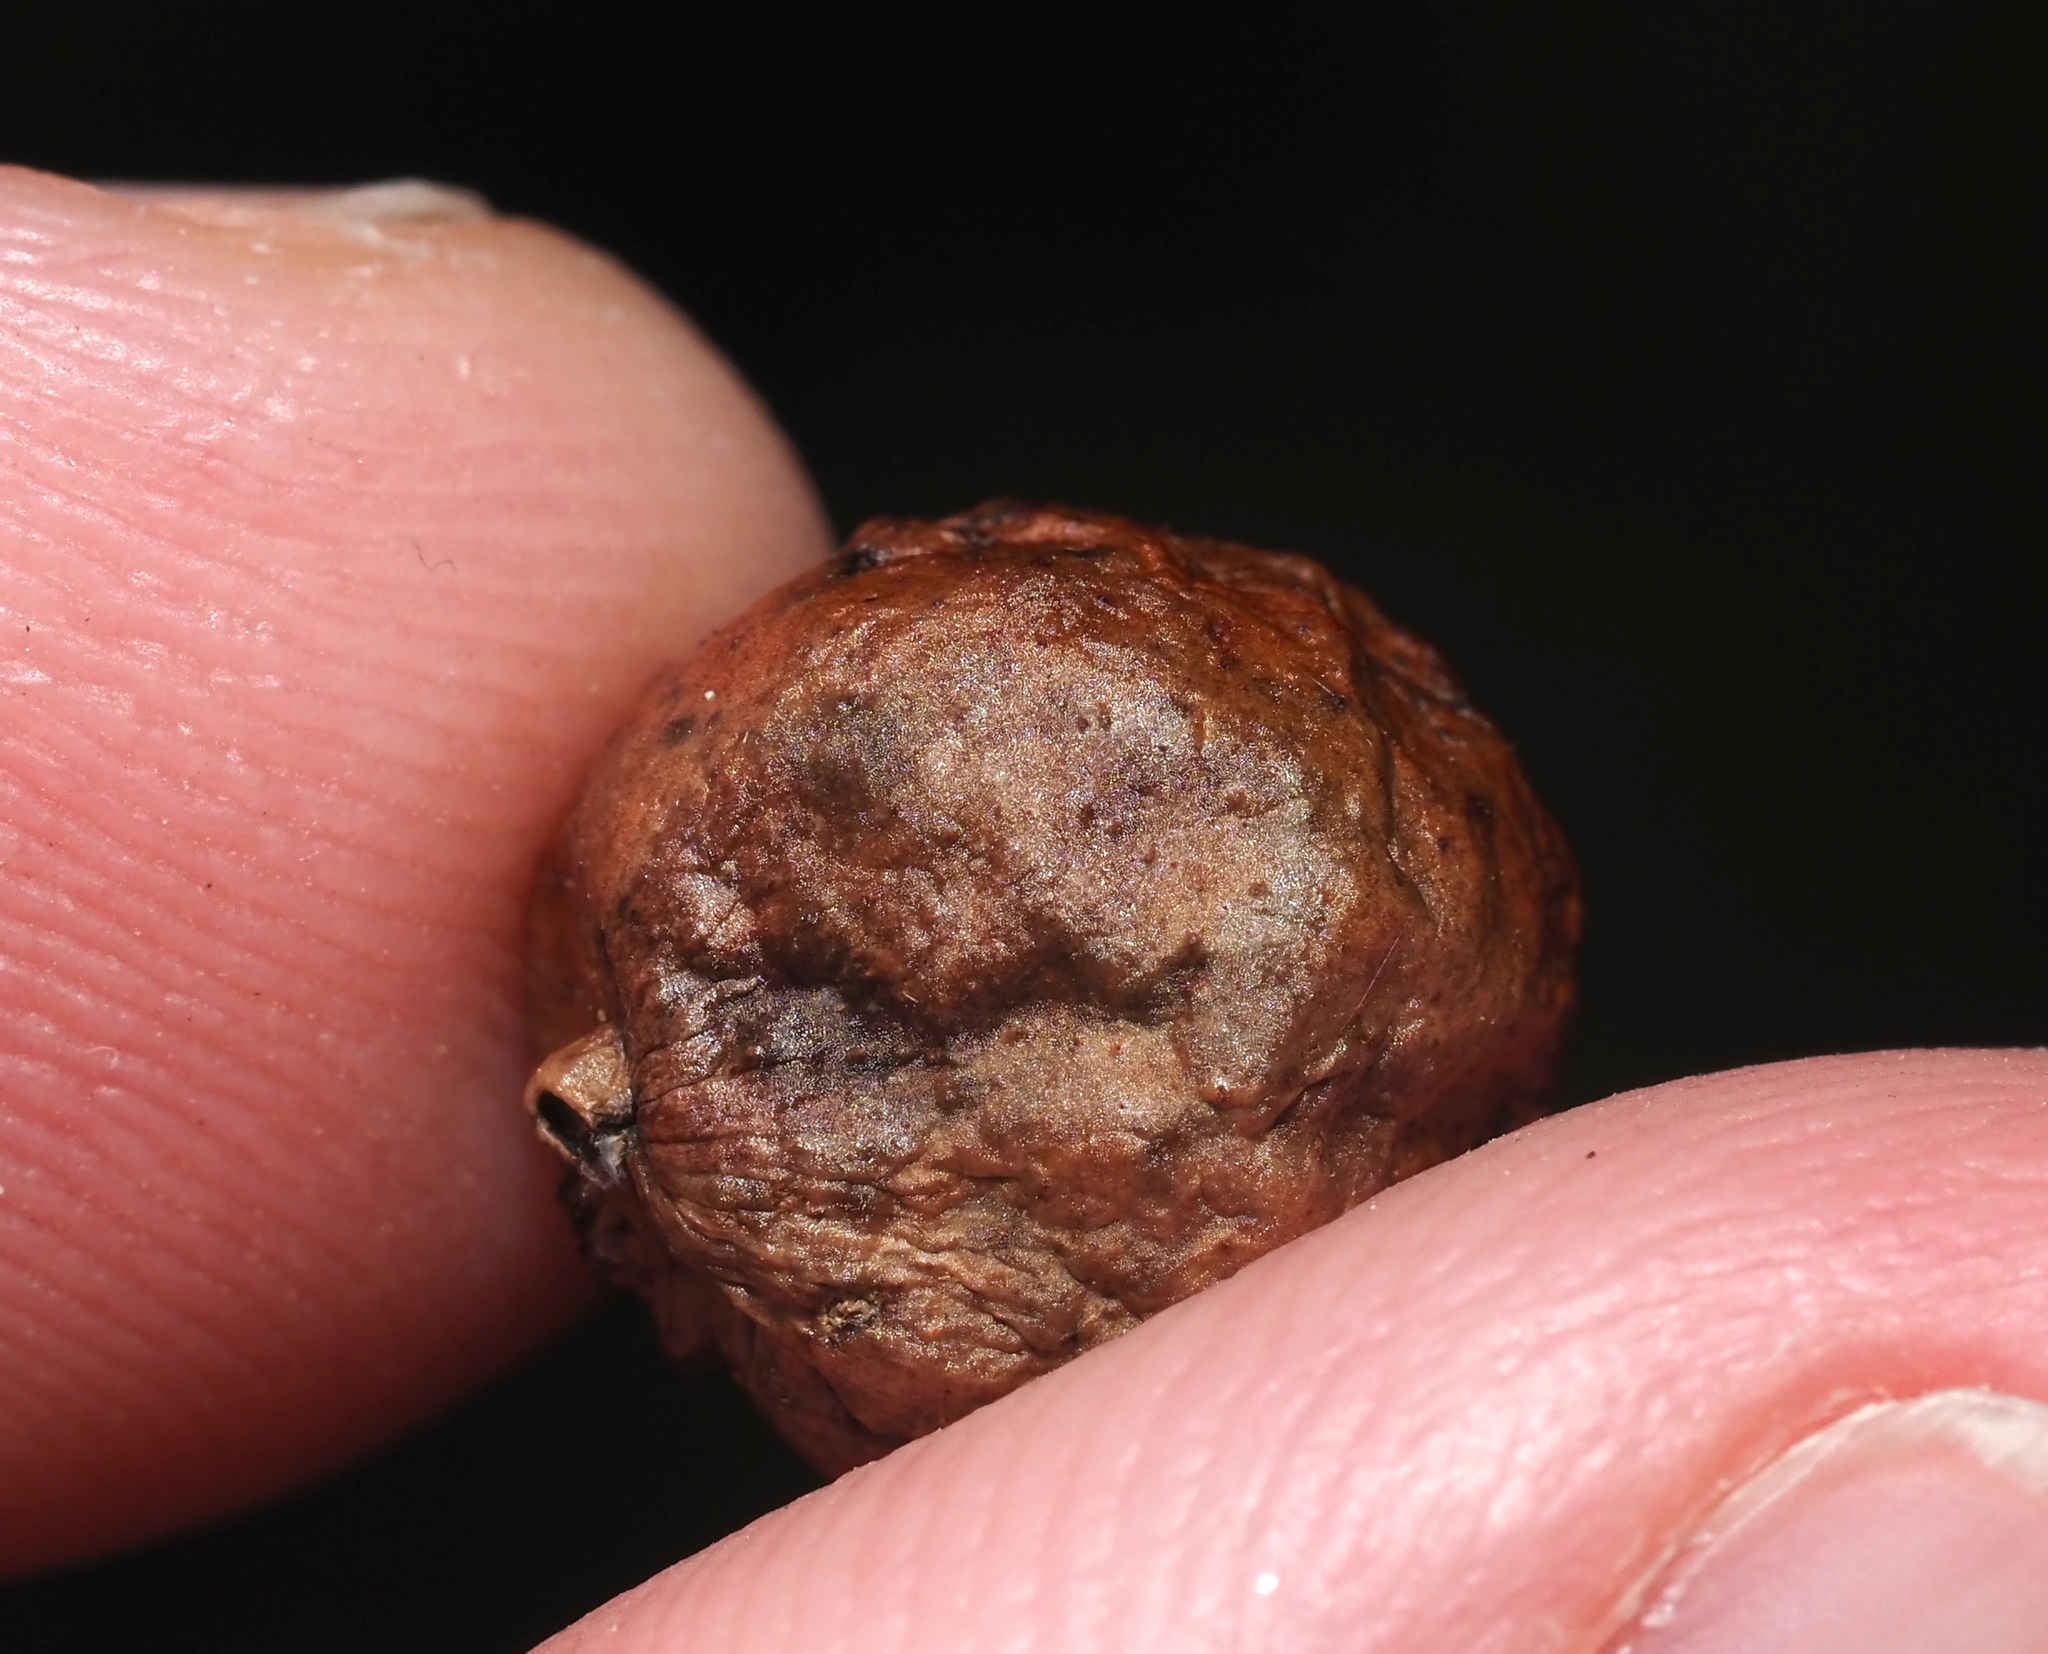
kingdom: Animalia
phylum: Arthropoda
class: Insecta
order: Hymenoptera
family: Cynipidae
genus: Amphibolips
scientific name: Amphibolips
